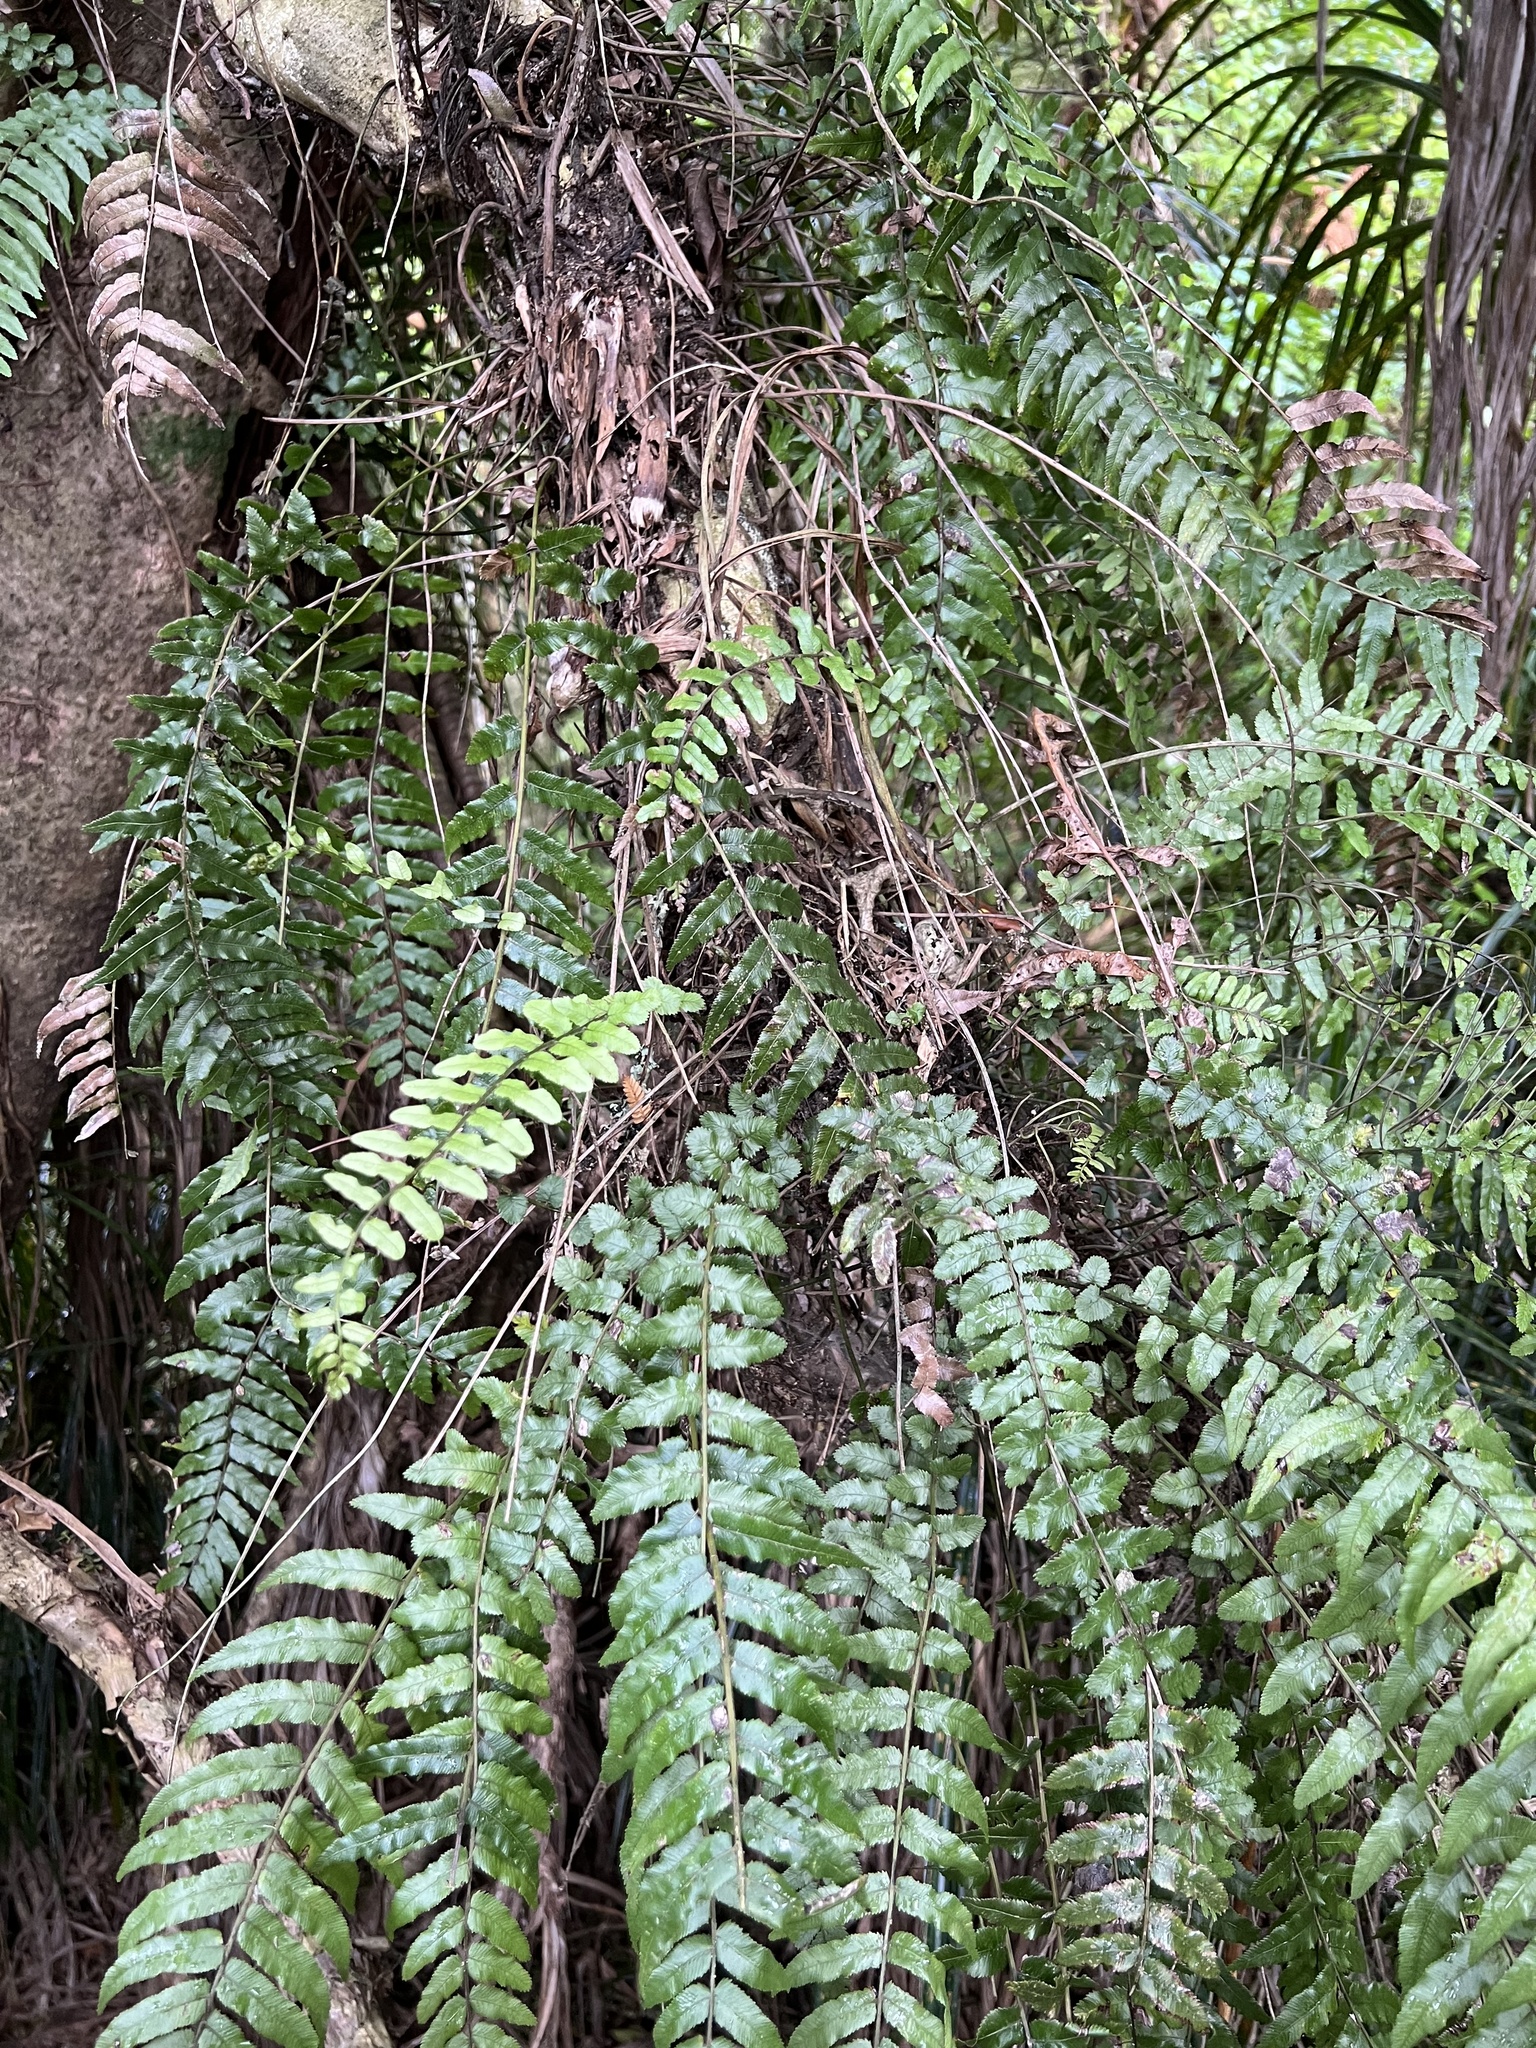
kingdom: Plantae
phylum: Tracheophyta
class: Polypodiopsida
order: Polypodiales
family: Blechnaceae
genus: Icarus
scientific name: Icarus filiformis
